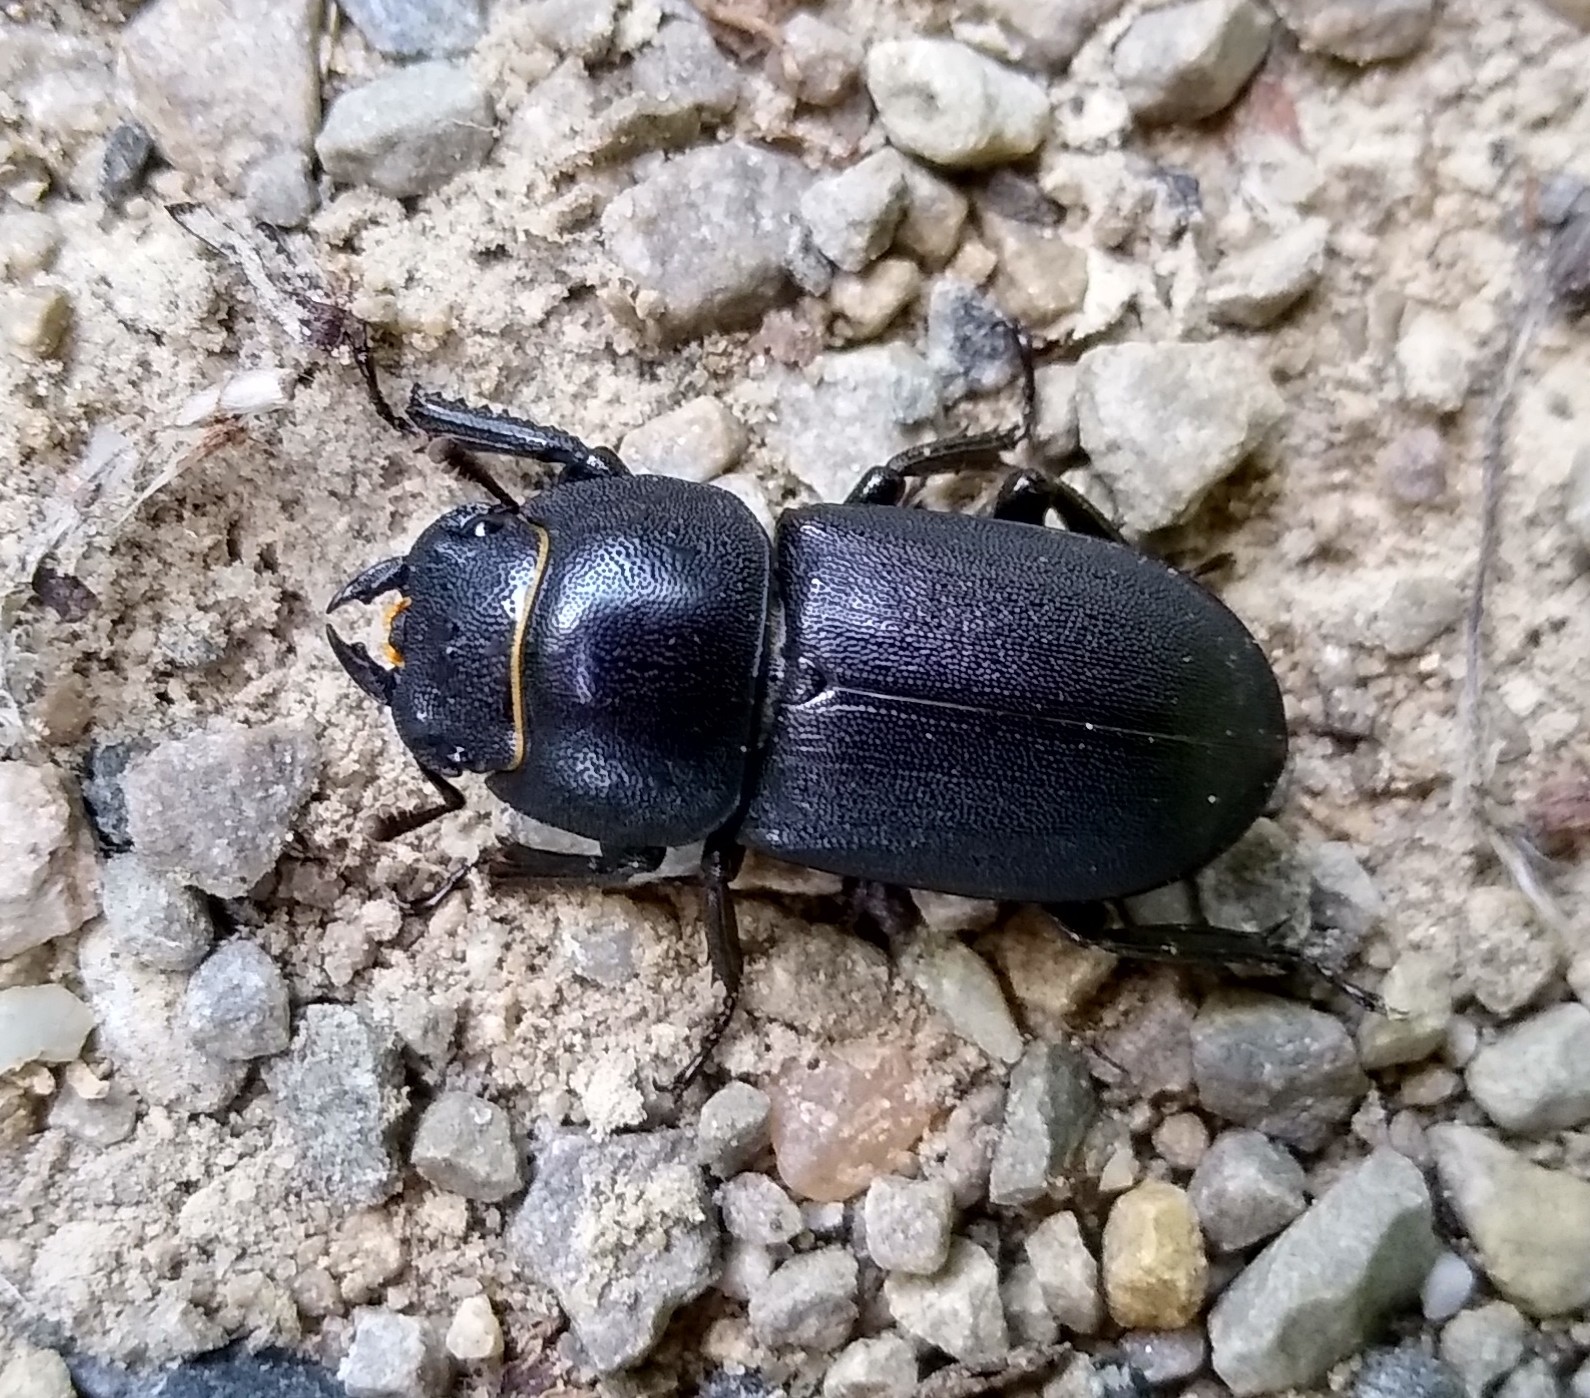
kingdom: Animalia
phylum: Arthropoda
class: Insecta
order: Coleoptera
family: Lucanidae
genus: Dorcus
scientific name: Dorcus parallelipipedus
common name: Lesser stag beetle
